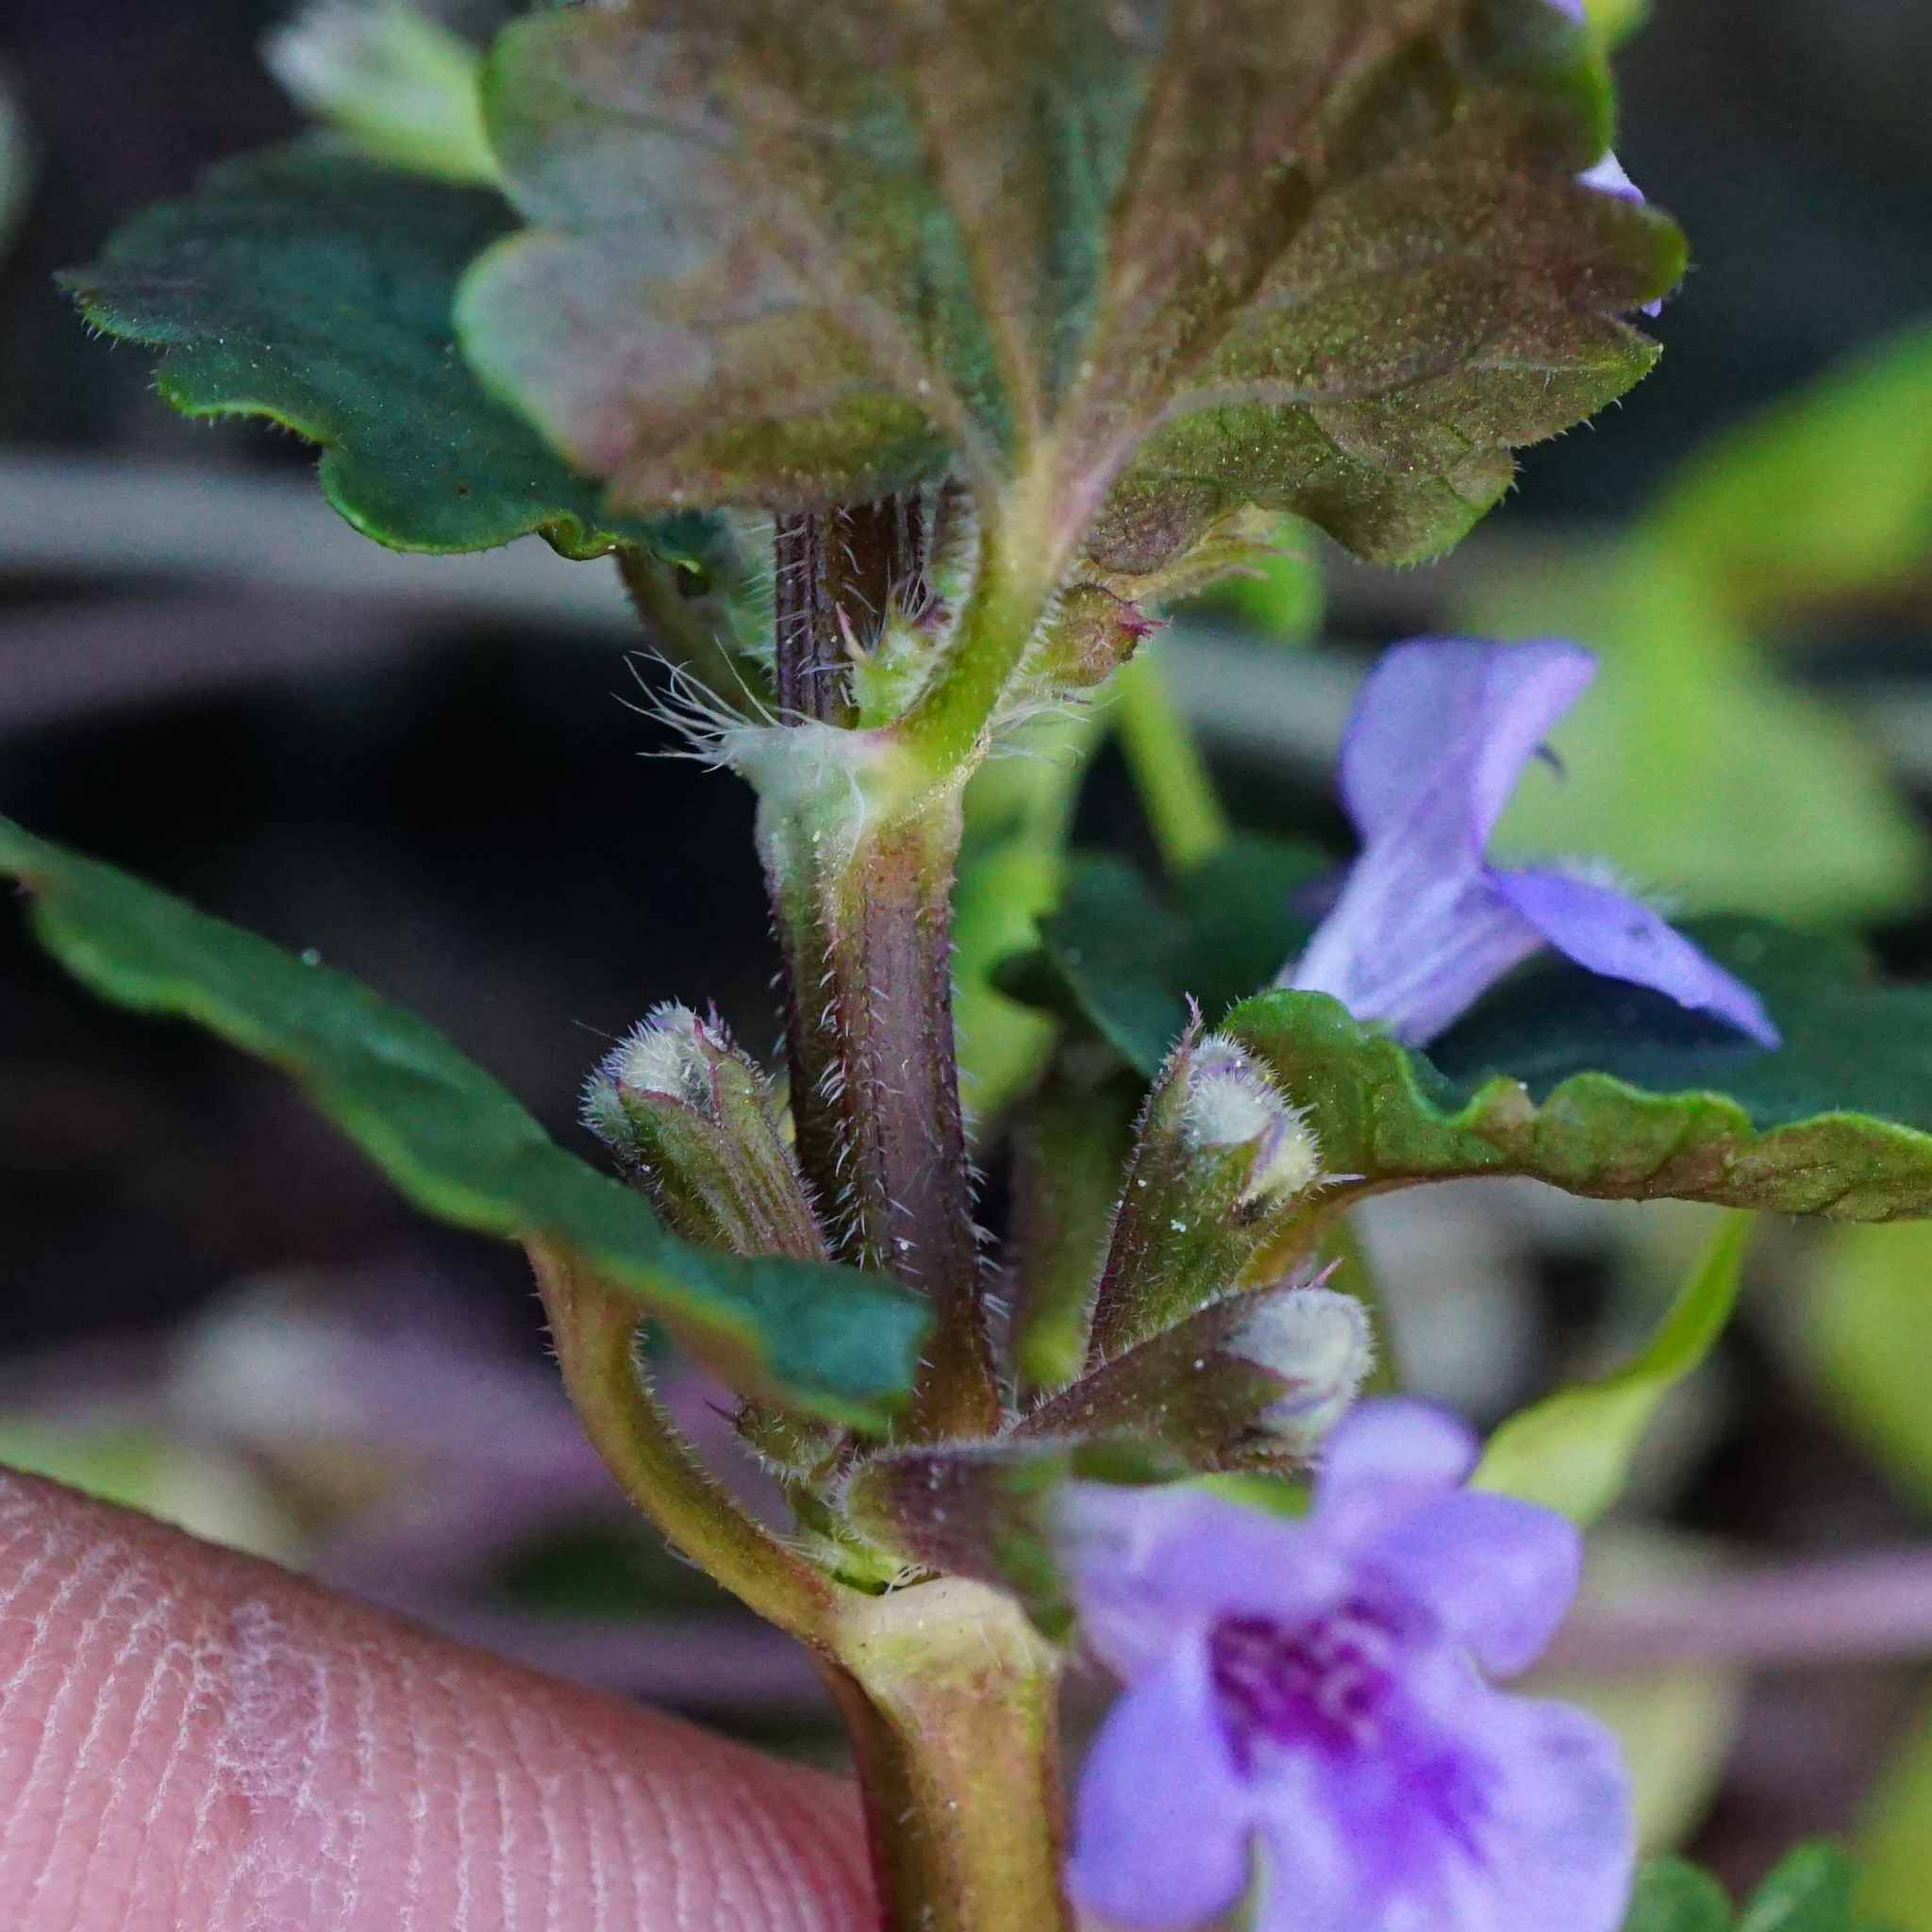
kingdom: Plantae
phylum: Tracheophyta
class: Magnoliopsida
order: Lamiales
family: Lamiaceae
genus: Glechoma
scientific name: Glechoma hederacea
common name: Ground ivy
